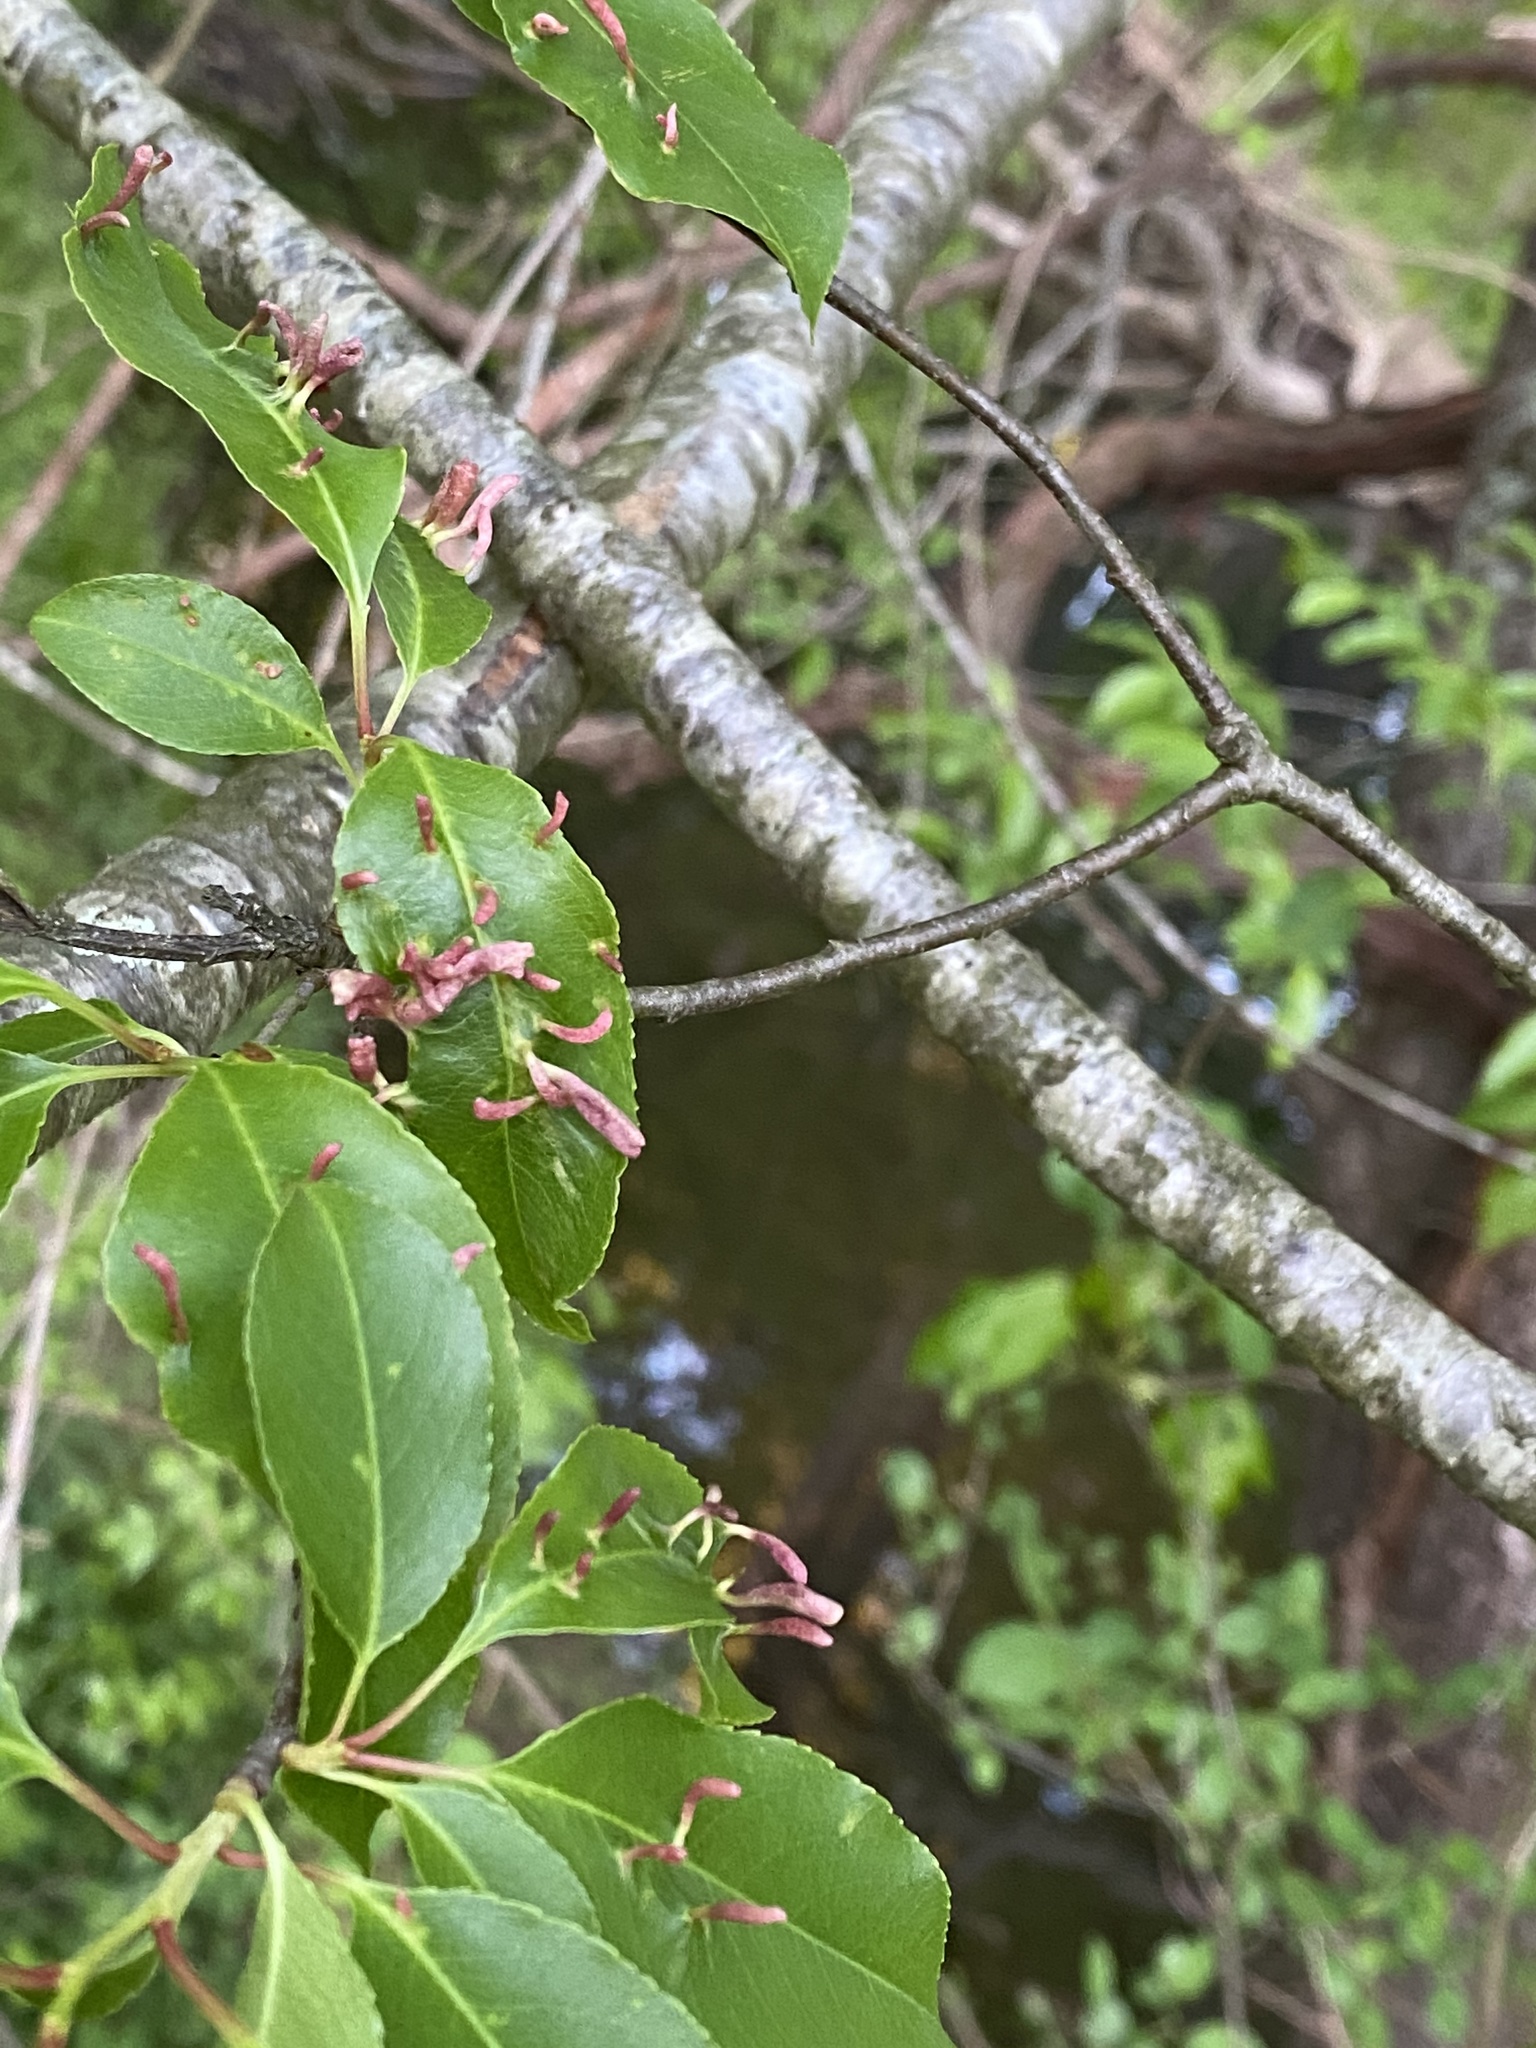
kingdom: Animalia
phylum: Arthropoda
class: Arachnida
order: Trombidiformes
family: Eriophyidae
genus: Eriophyes
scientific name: Eriophyes
